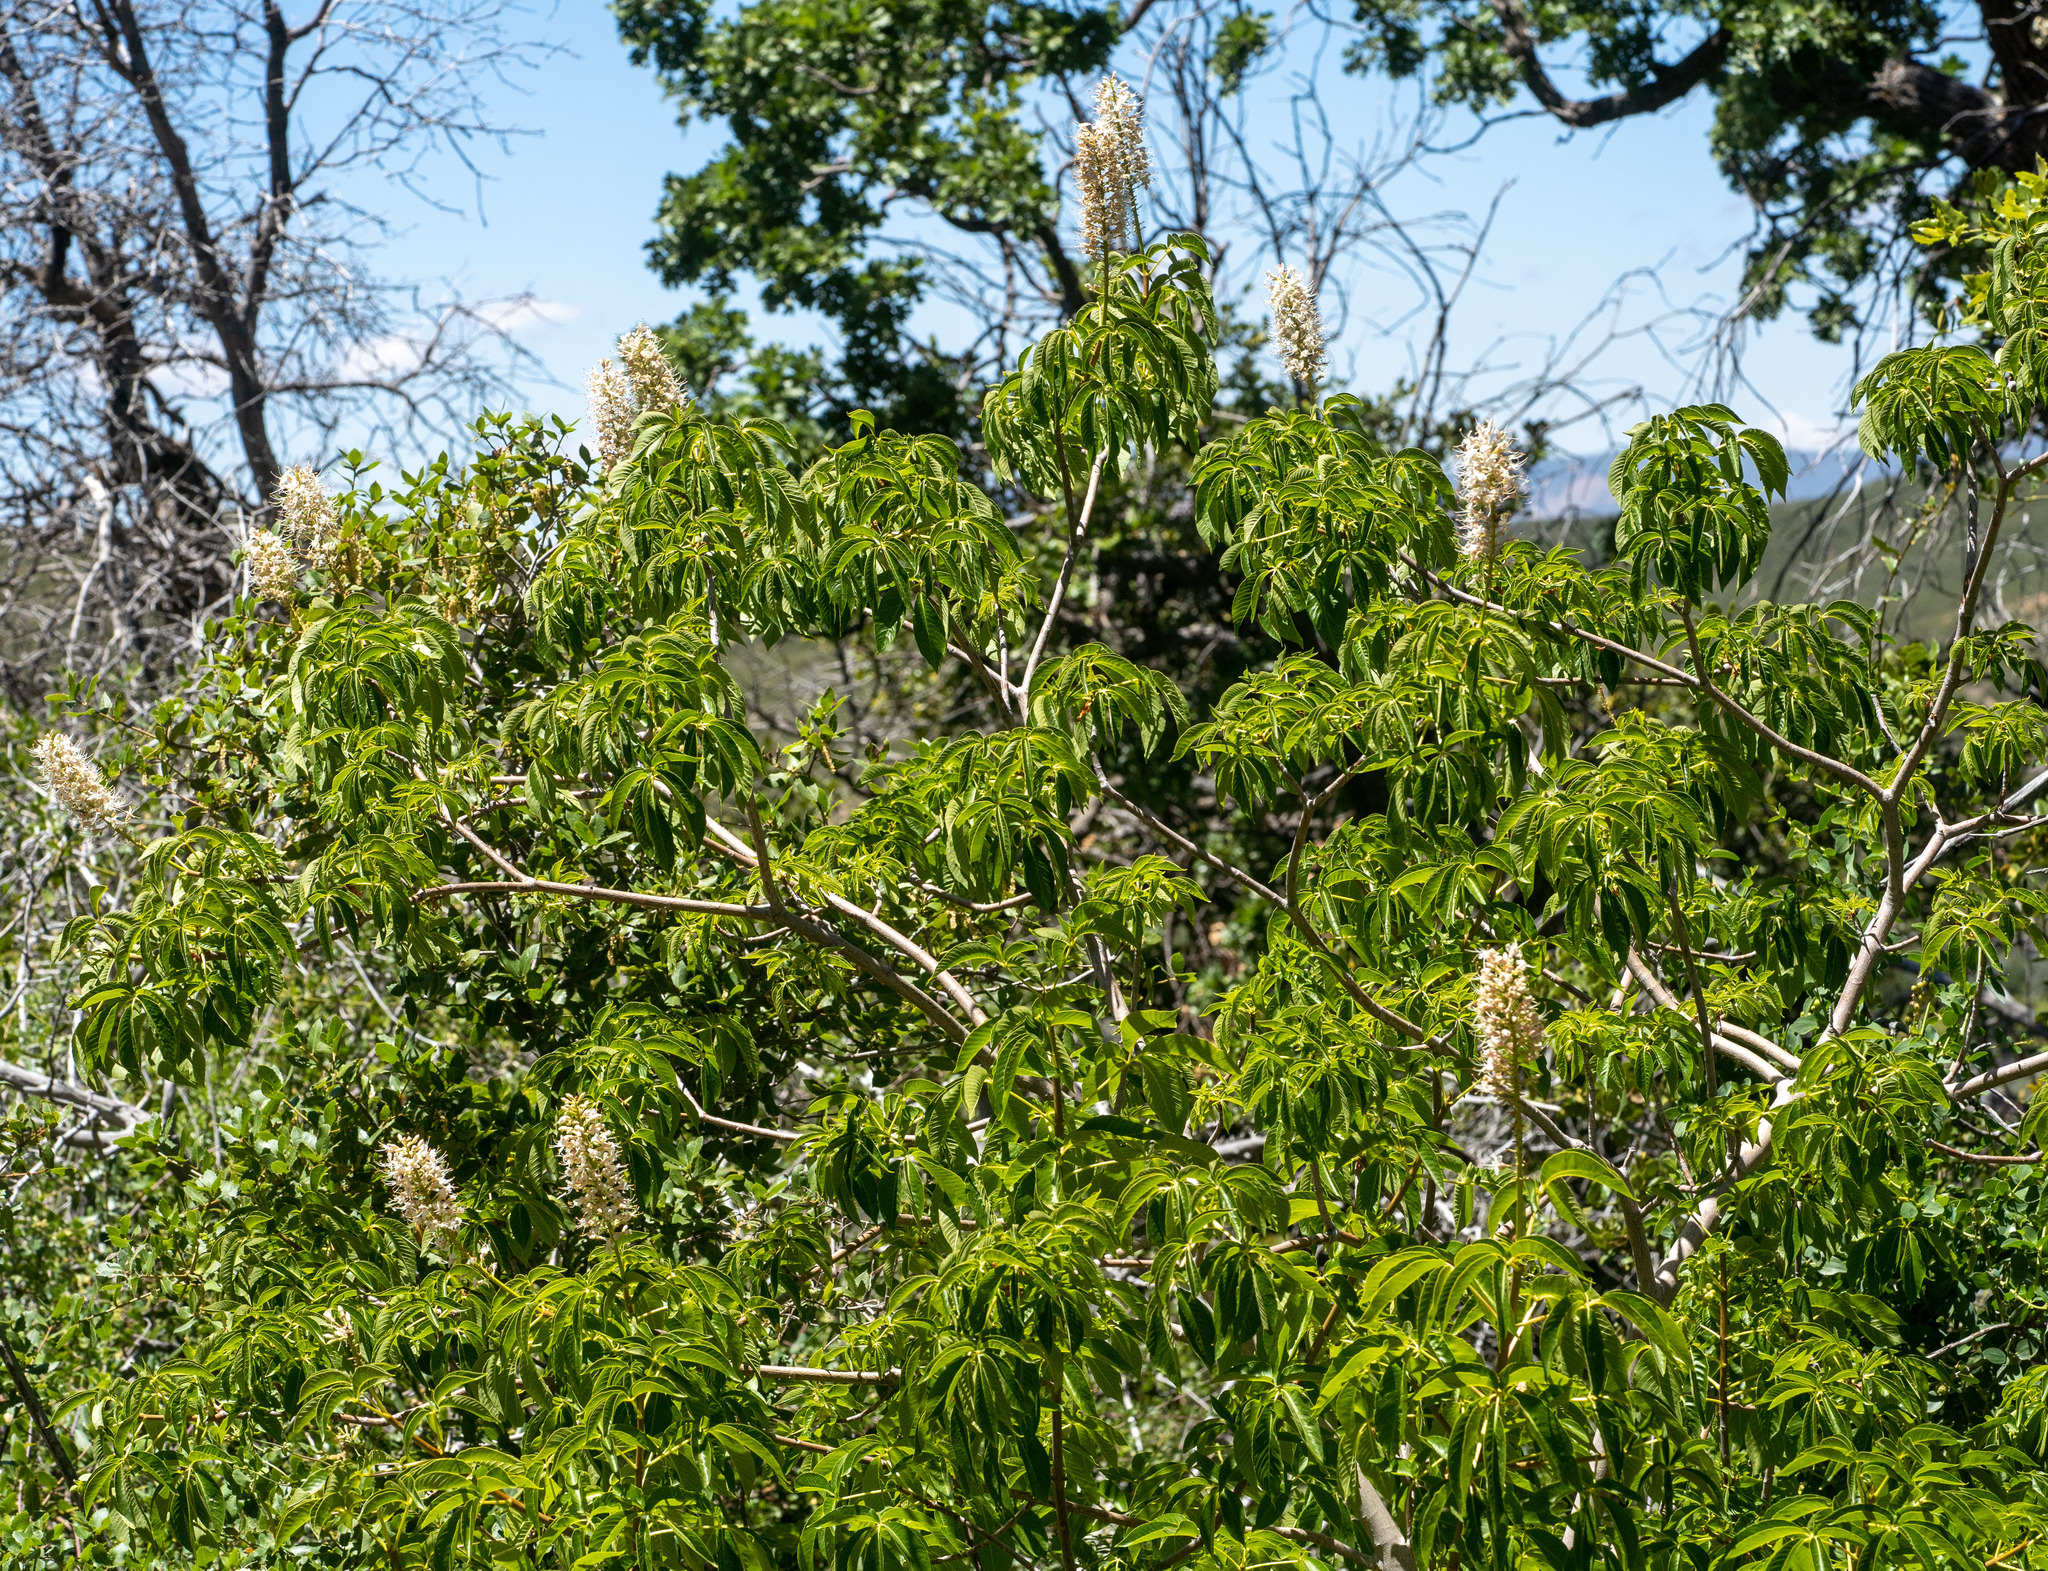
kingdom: Plantae
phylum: Tracheophyta
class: Magnoliopsida
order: Sapindales
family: Sapindaceae
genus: Aesculus
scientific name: Aesculus californica
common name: California buckeye
